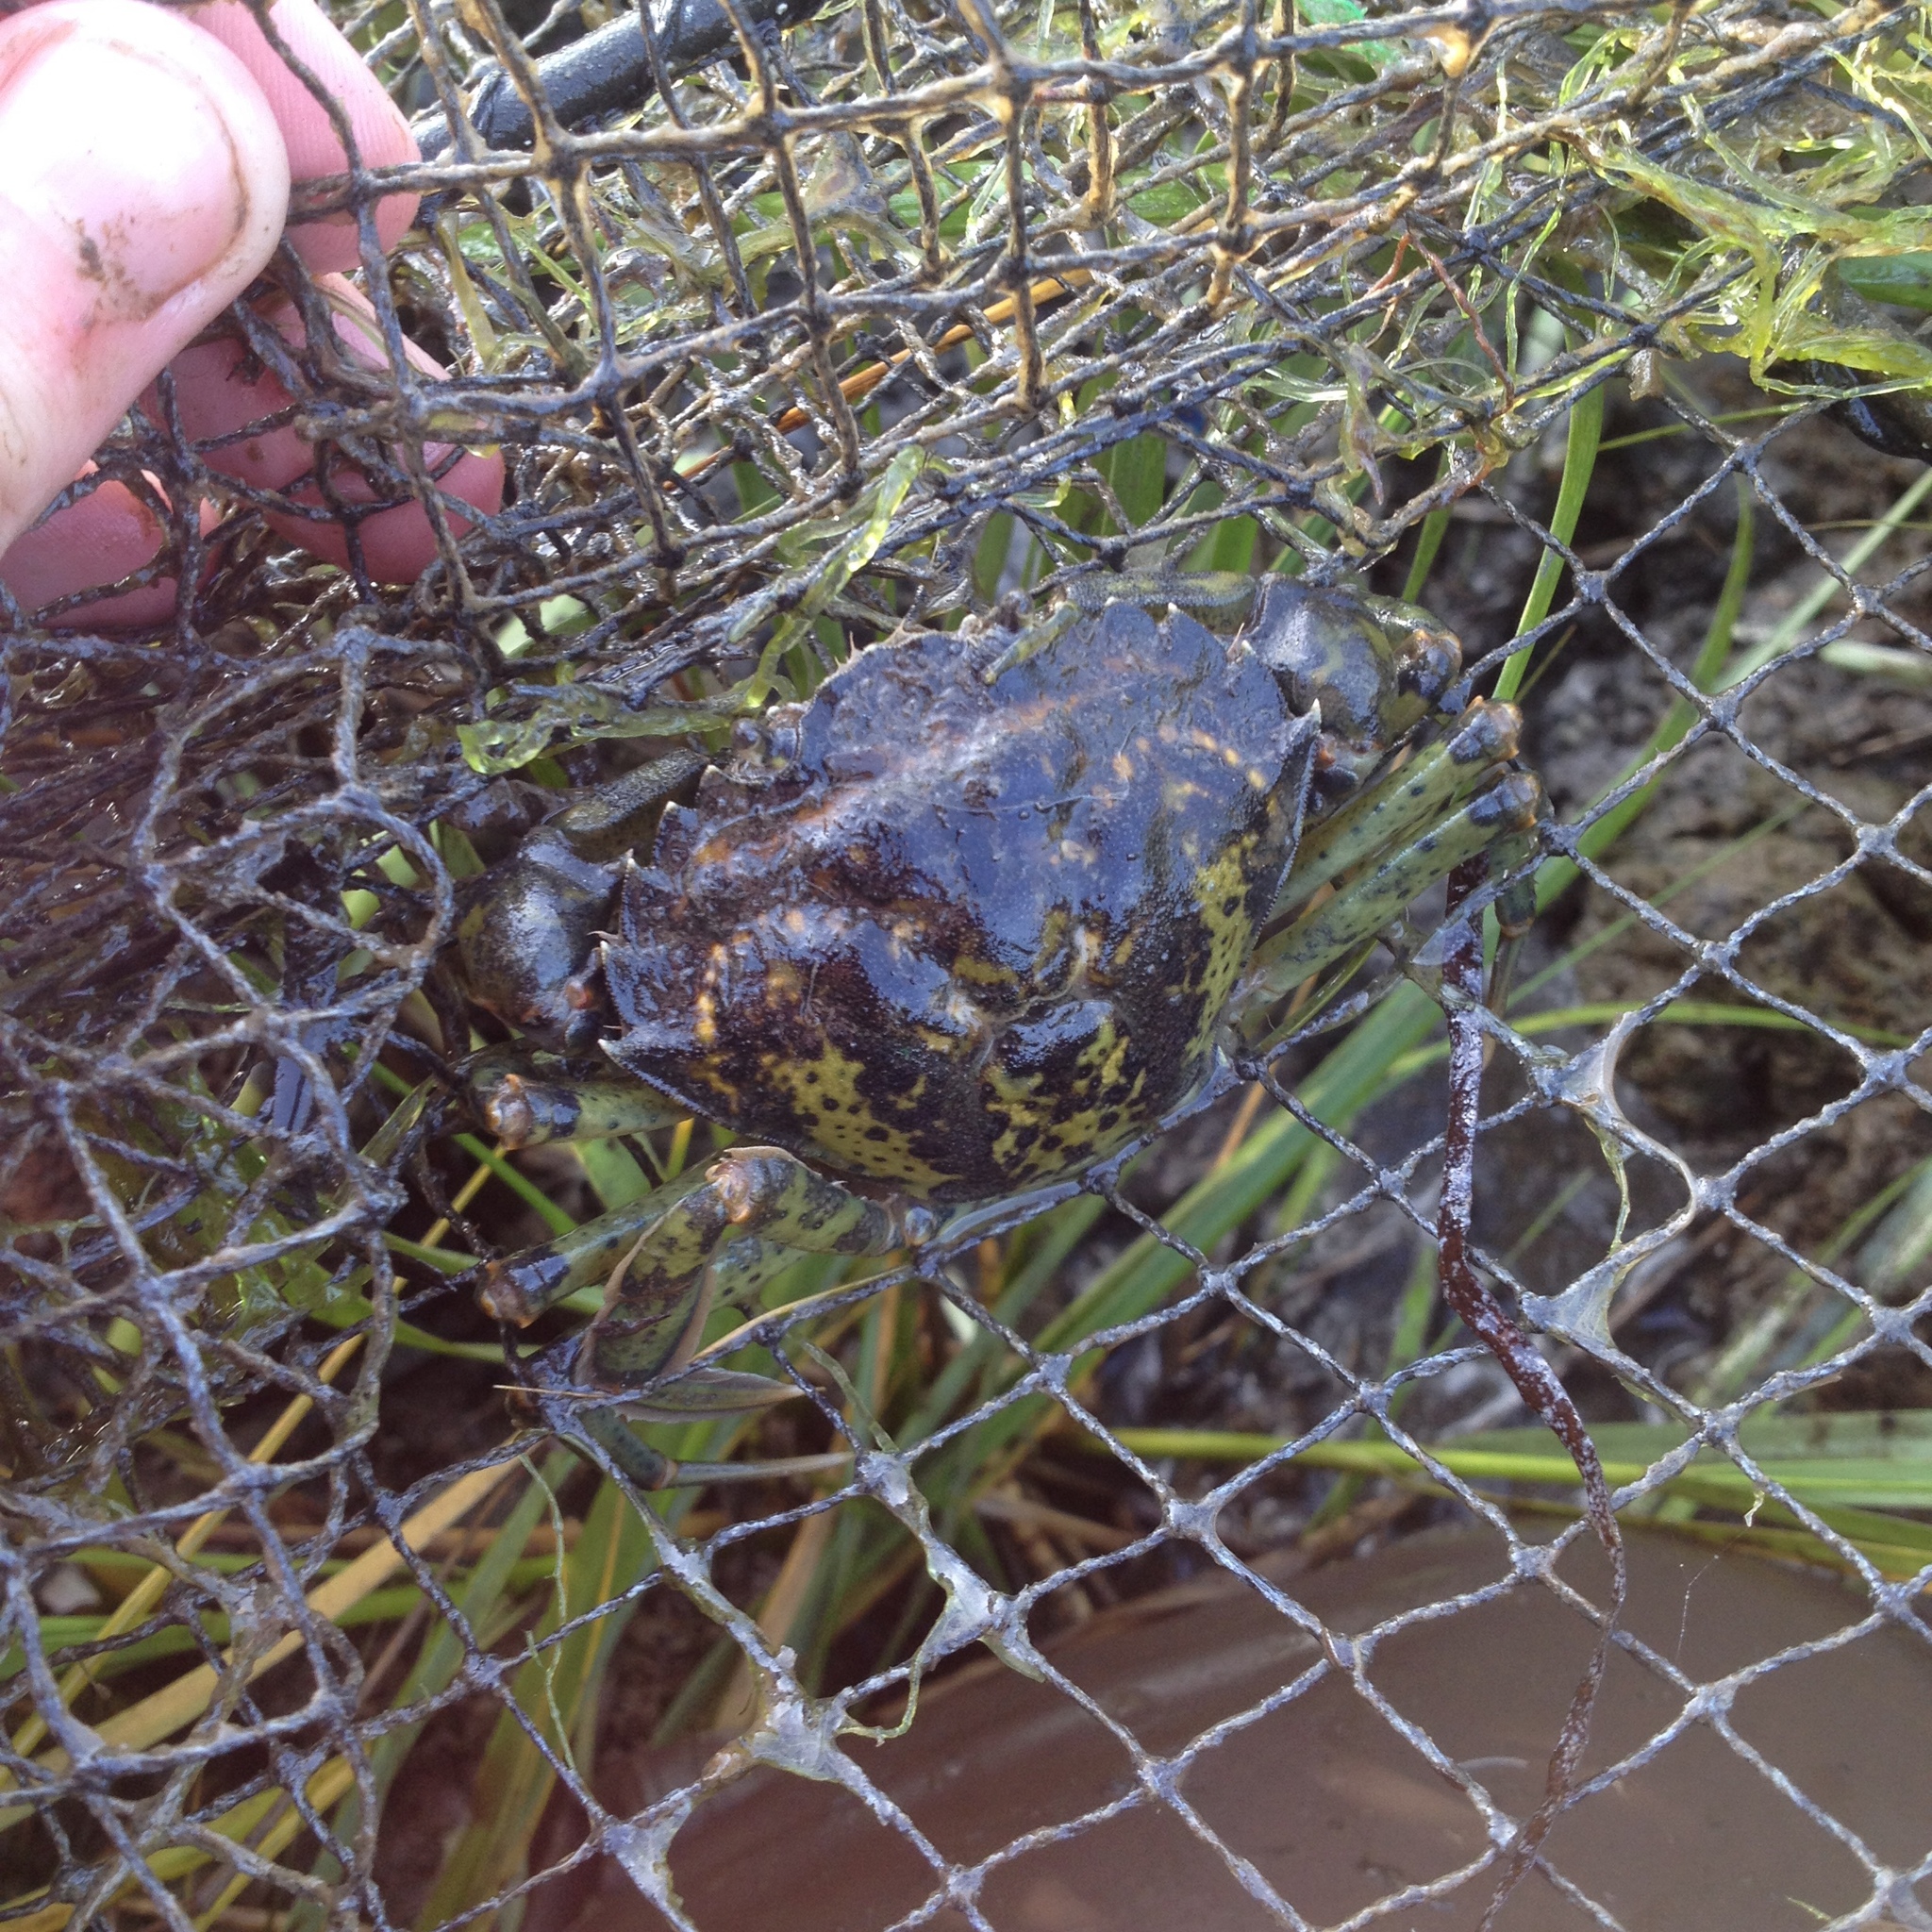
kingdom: Animalia
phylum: Arthropoda
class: Malacostraca
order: Decapoda
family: Carcinidae
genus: Carcinus
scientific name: Carcinus maenas
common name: European green crab
